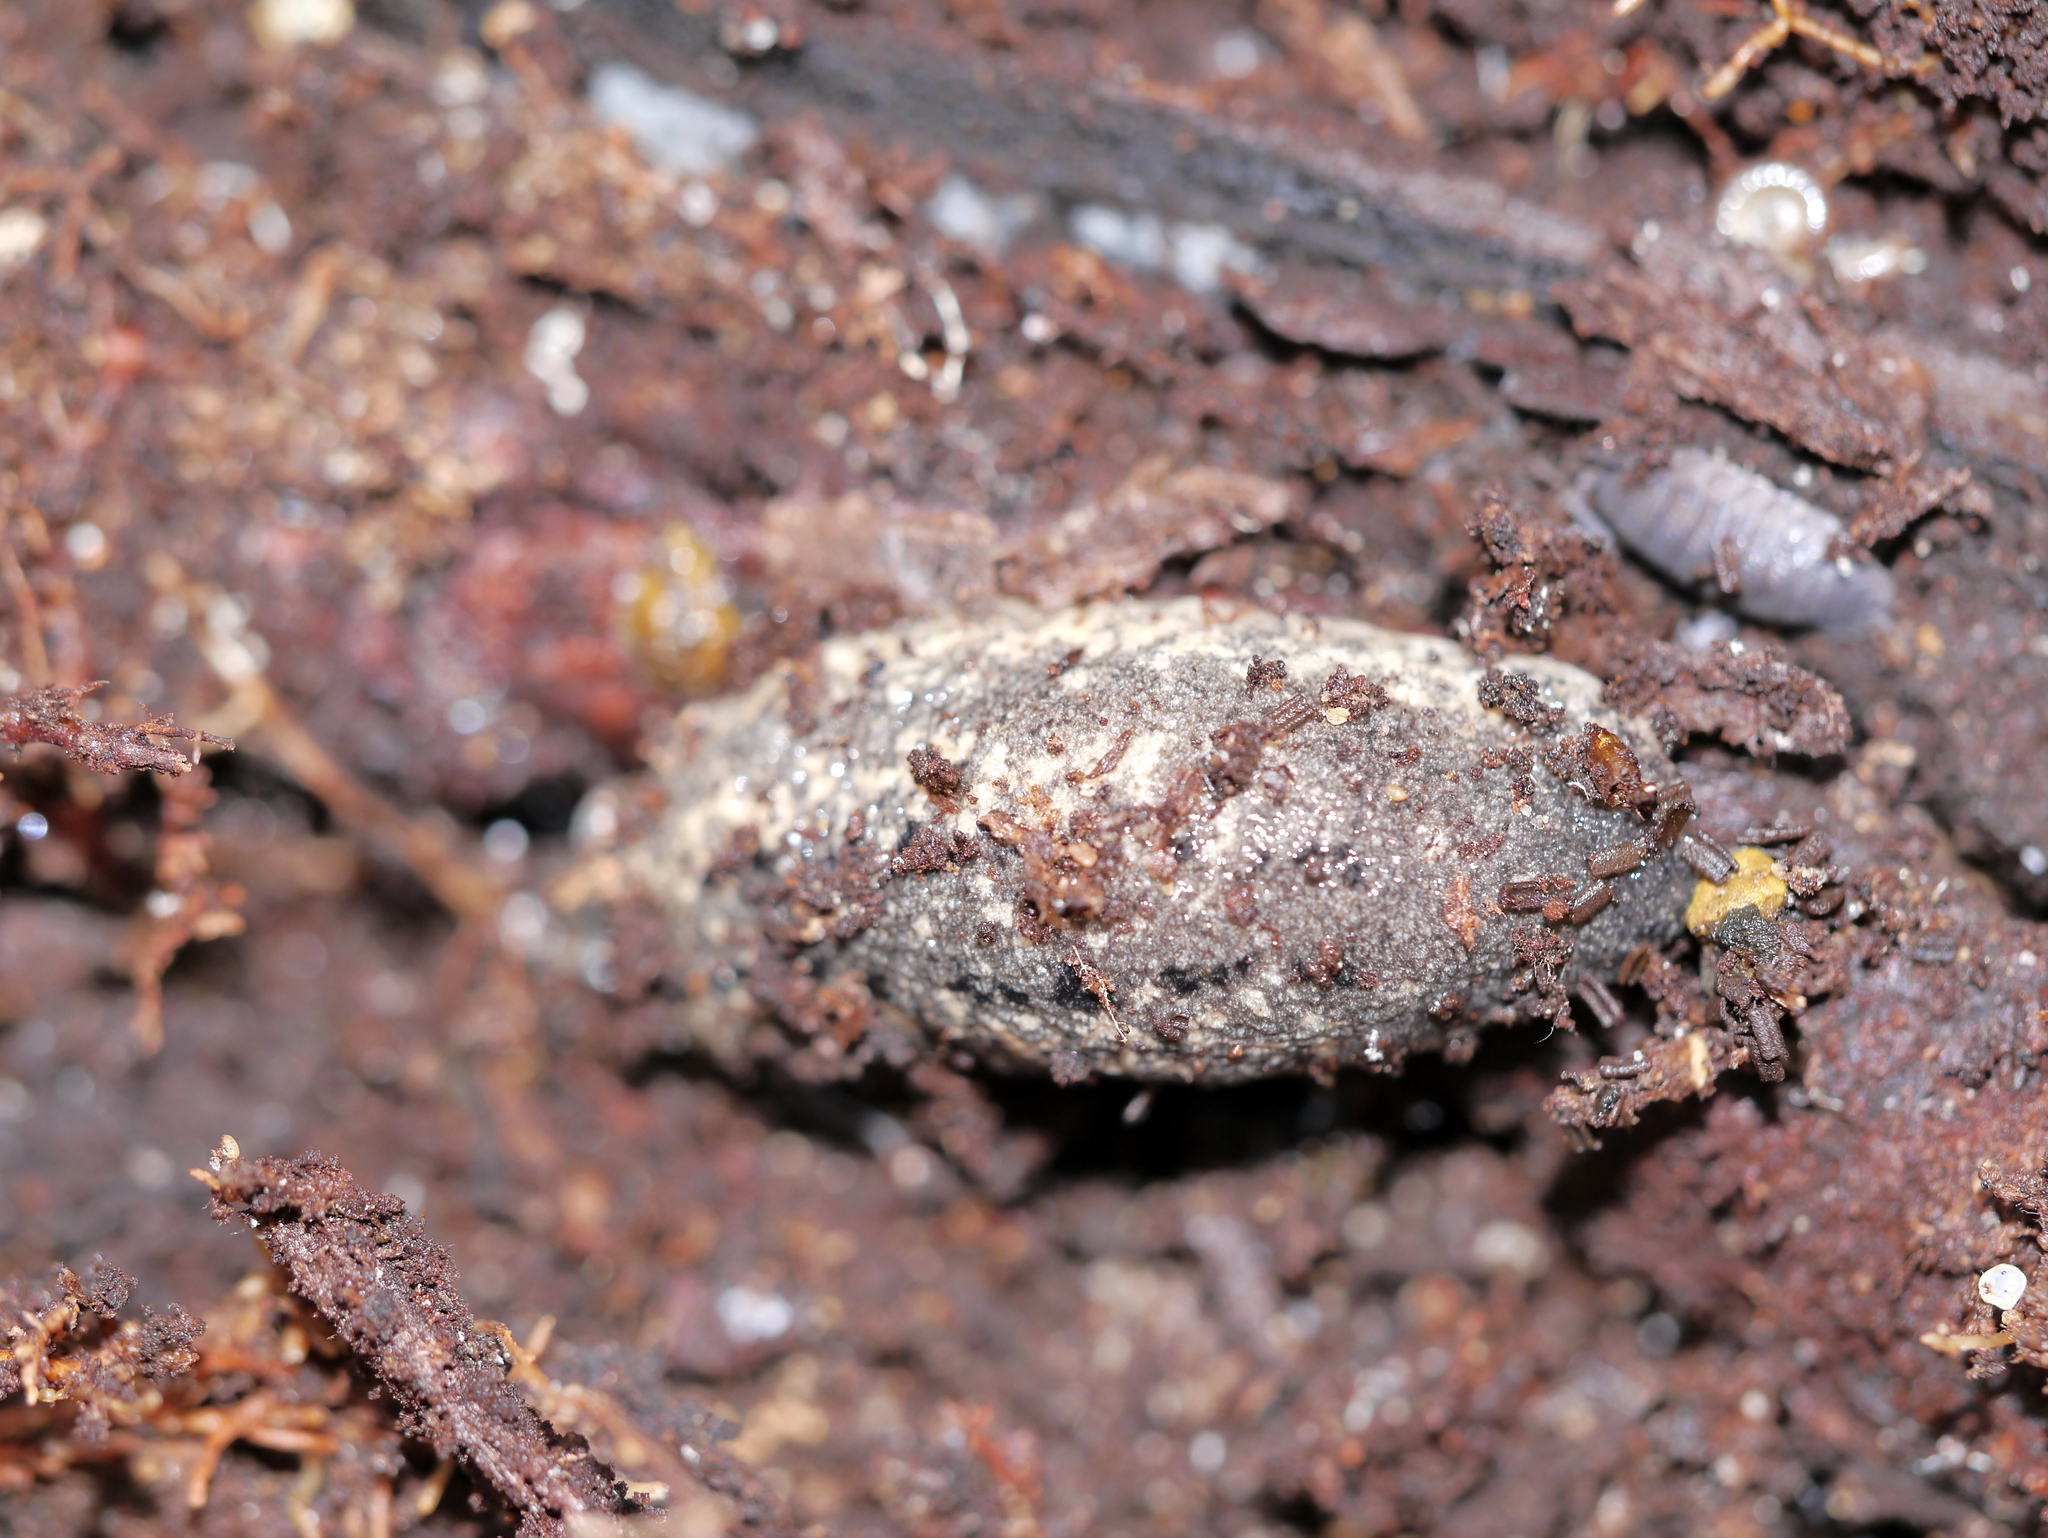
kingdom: Animalia
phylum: Mollusca
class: Gastropoda
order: Stylommatophora
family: Philomycidae
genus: Philomycus
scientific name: Philomycus carolinianus
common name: Carolina mantleslug
